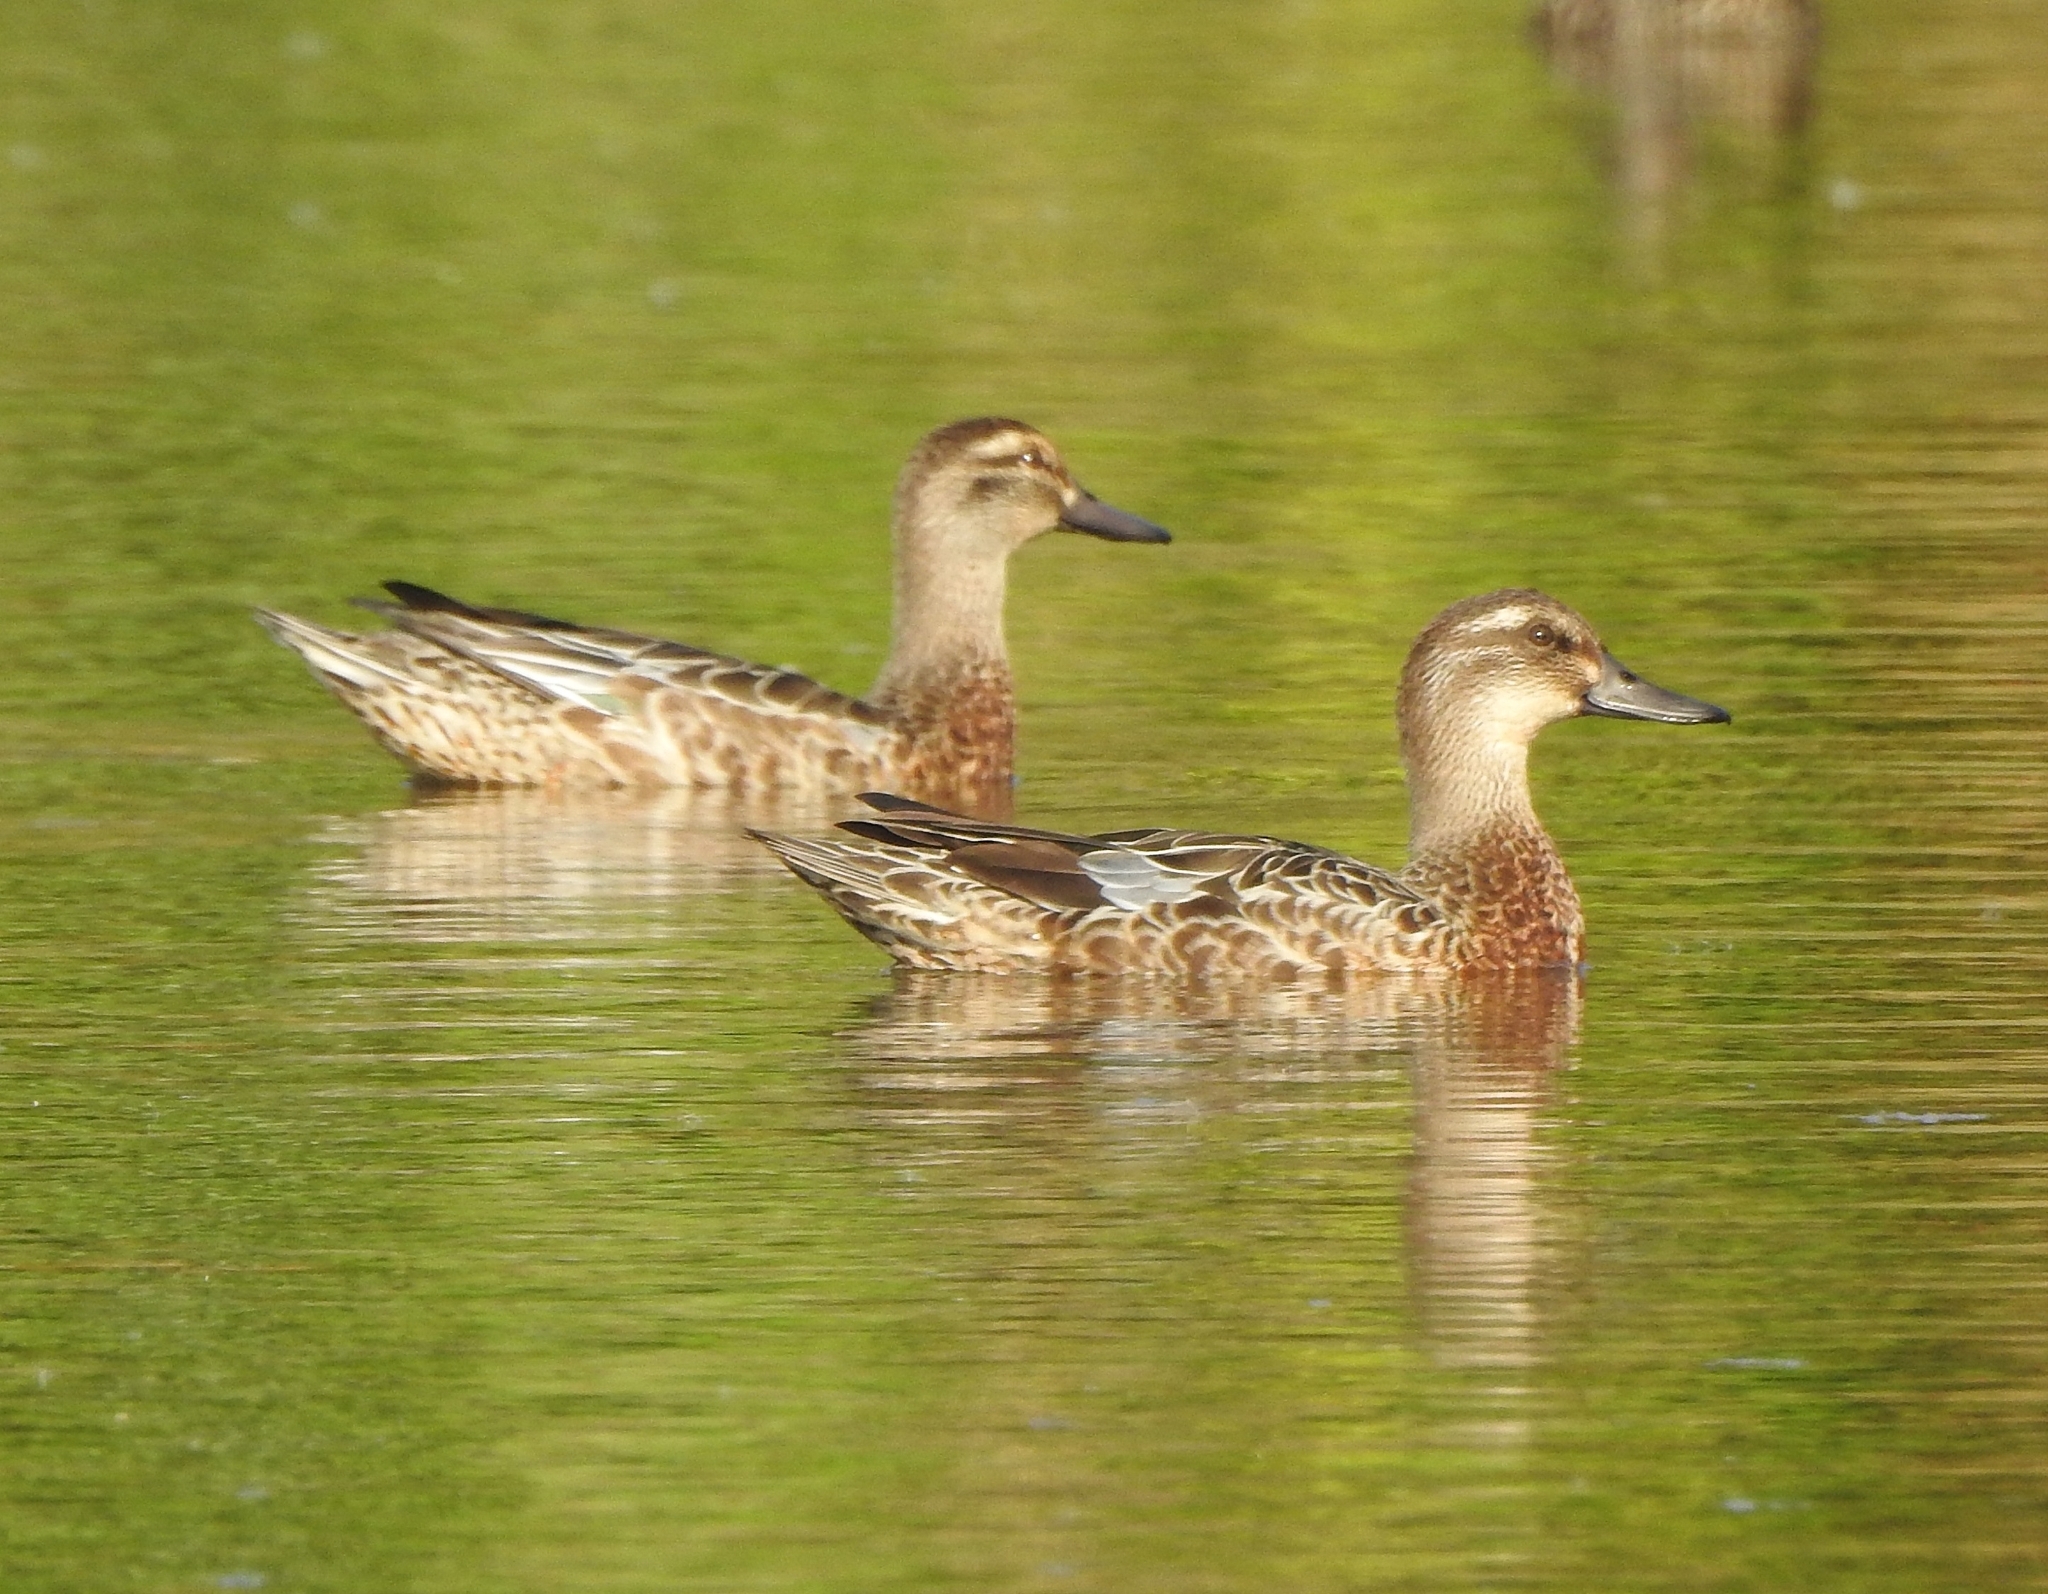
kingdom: Animalia
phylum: Chordata
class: Aves
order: Anseriformes
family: Anatidae
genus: Spatula
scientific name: Spatula querquedula
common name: Garganey
